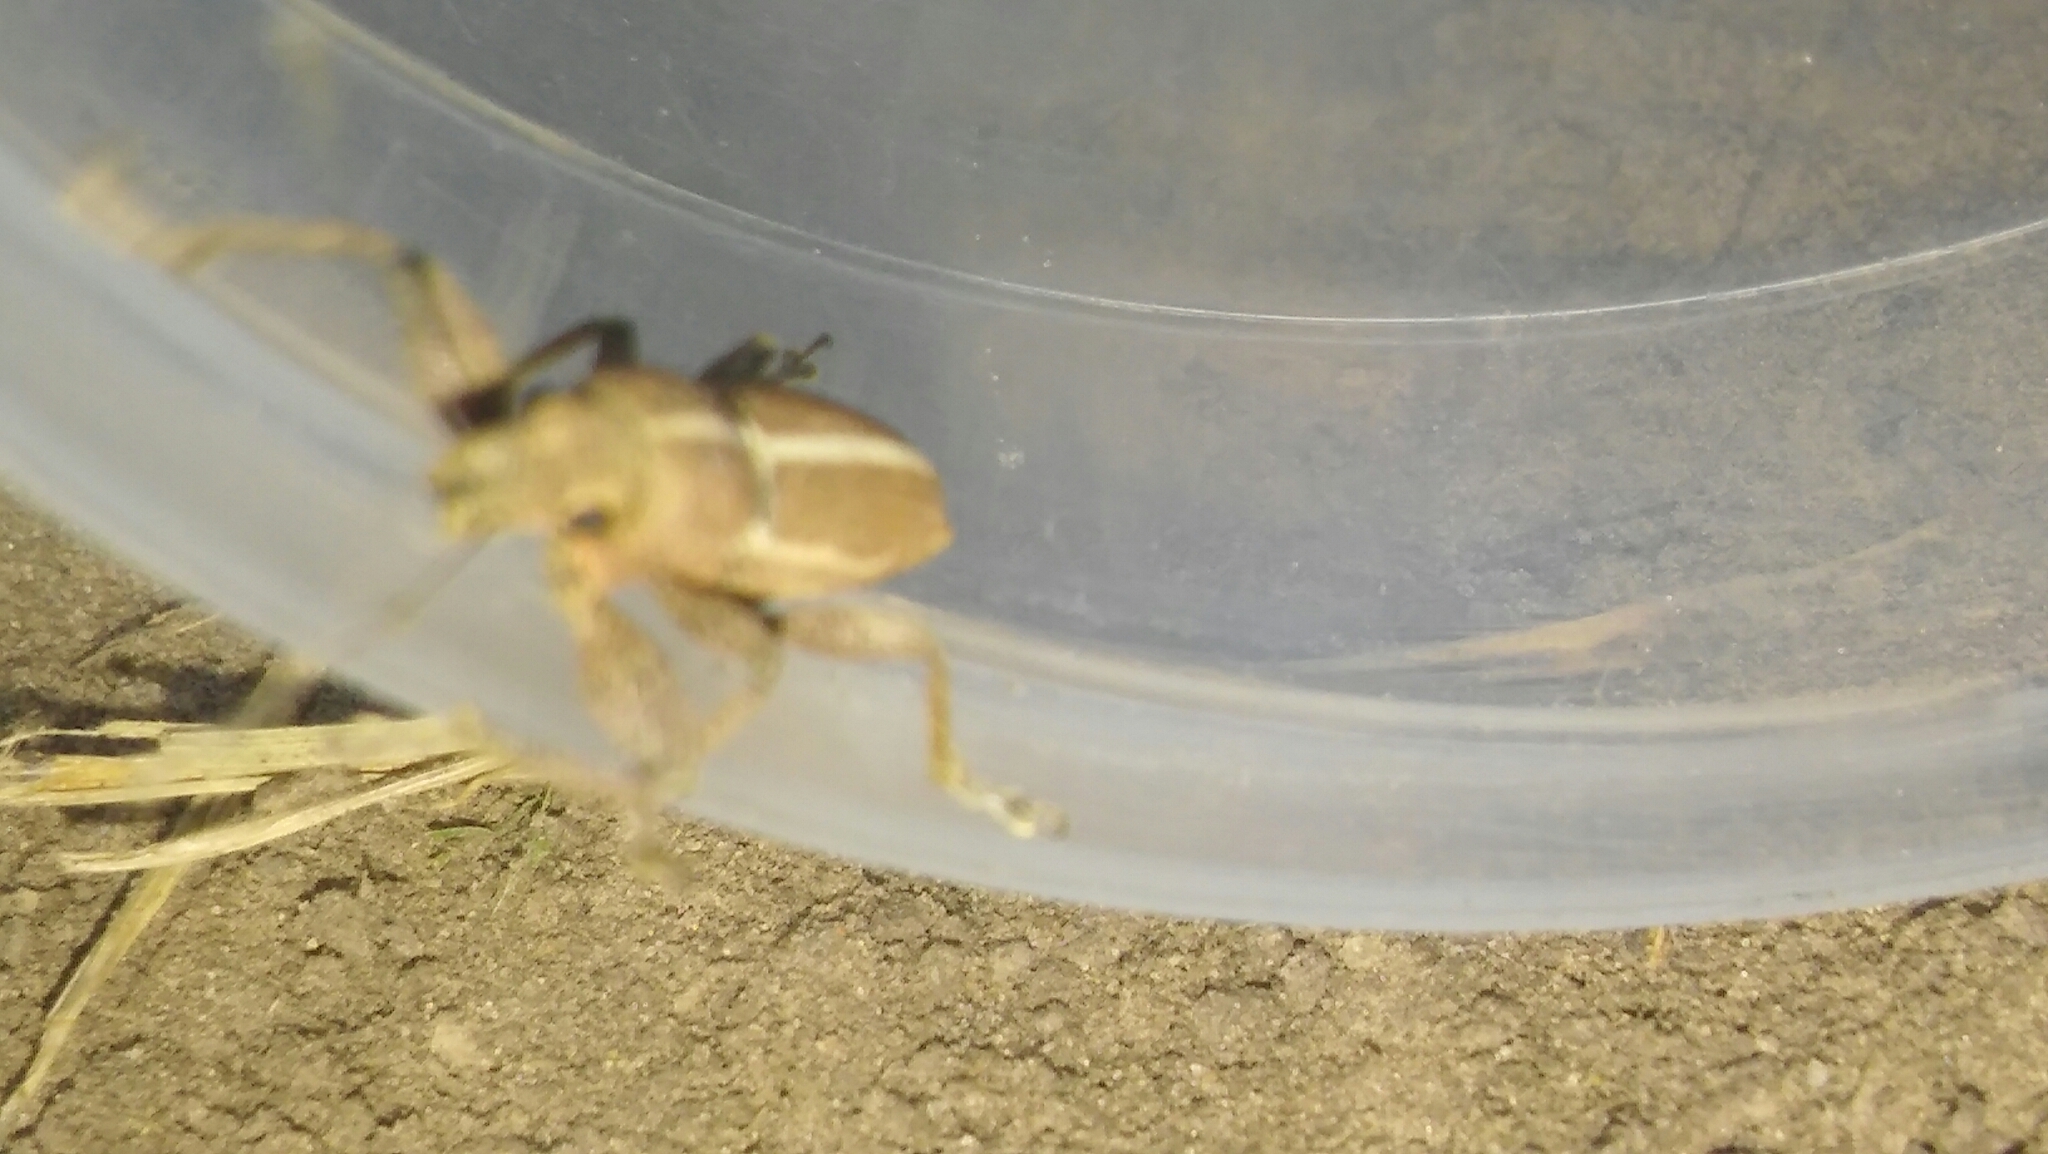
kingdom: Animalia
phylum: Arthropoda
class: Insecta
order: Coleoptera
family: Curculionidae
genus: Naupactus
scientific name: Naupactus dissimulator
